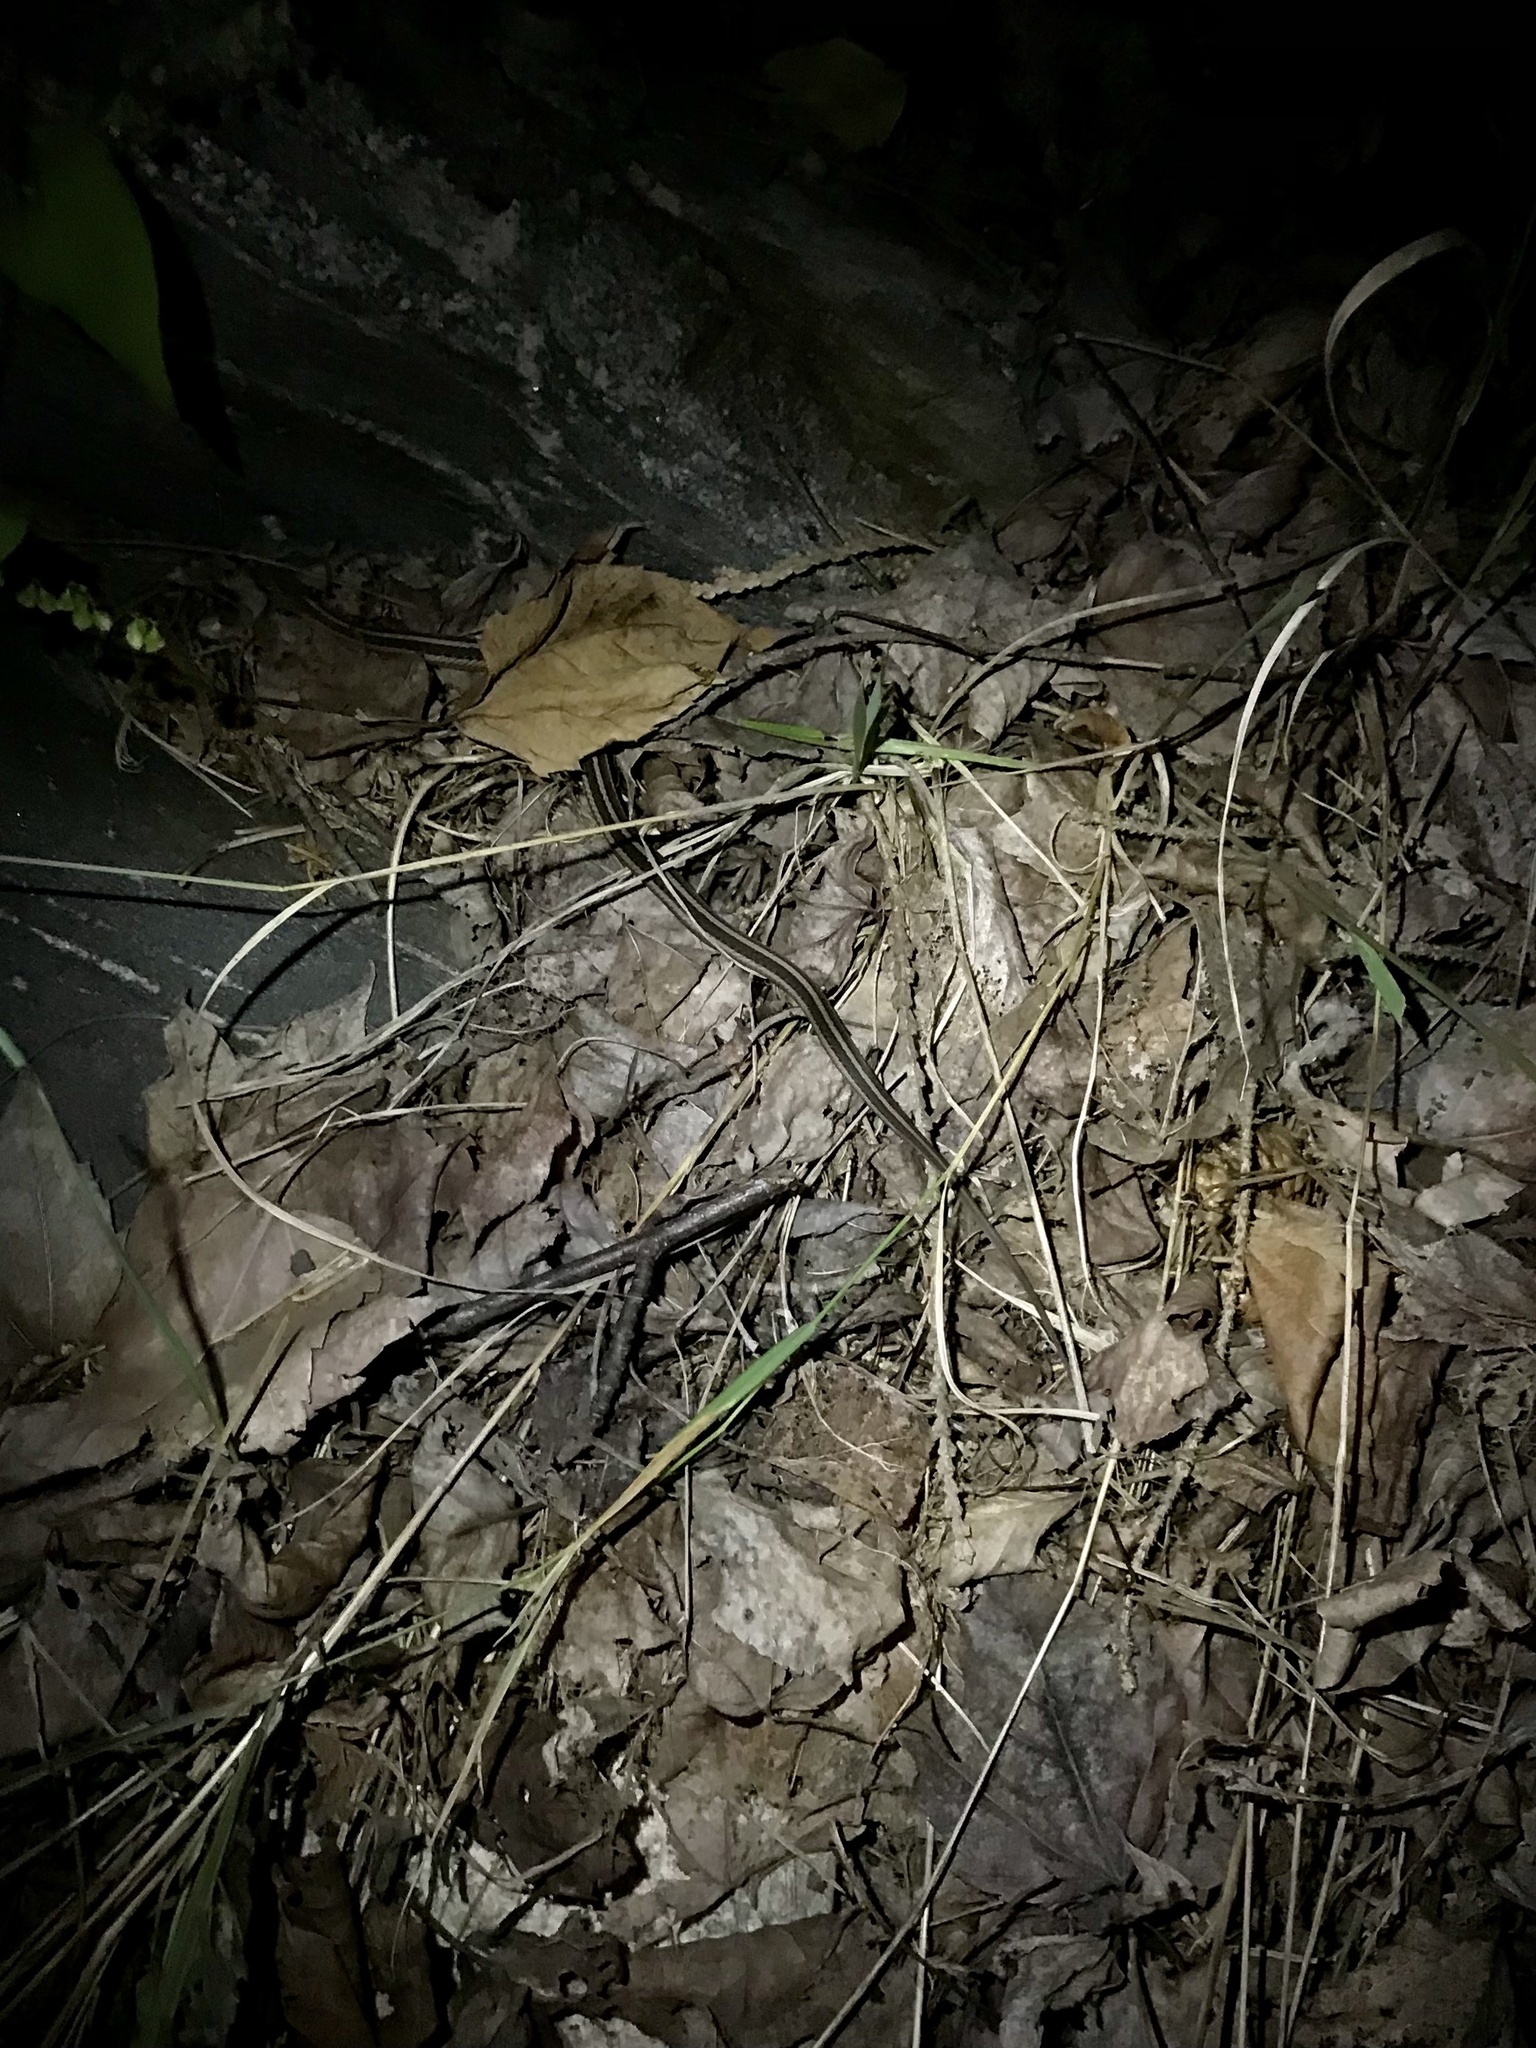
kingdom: Animalia
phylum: Chordata
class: Squamata
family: Colubridae
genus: Thamnophis
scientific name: Thamnophis sirtalis
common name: Common garter snake
